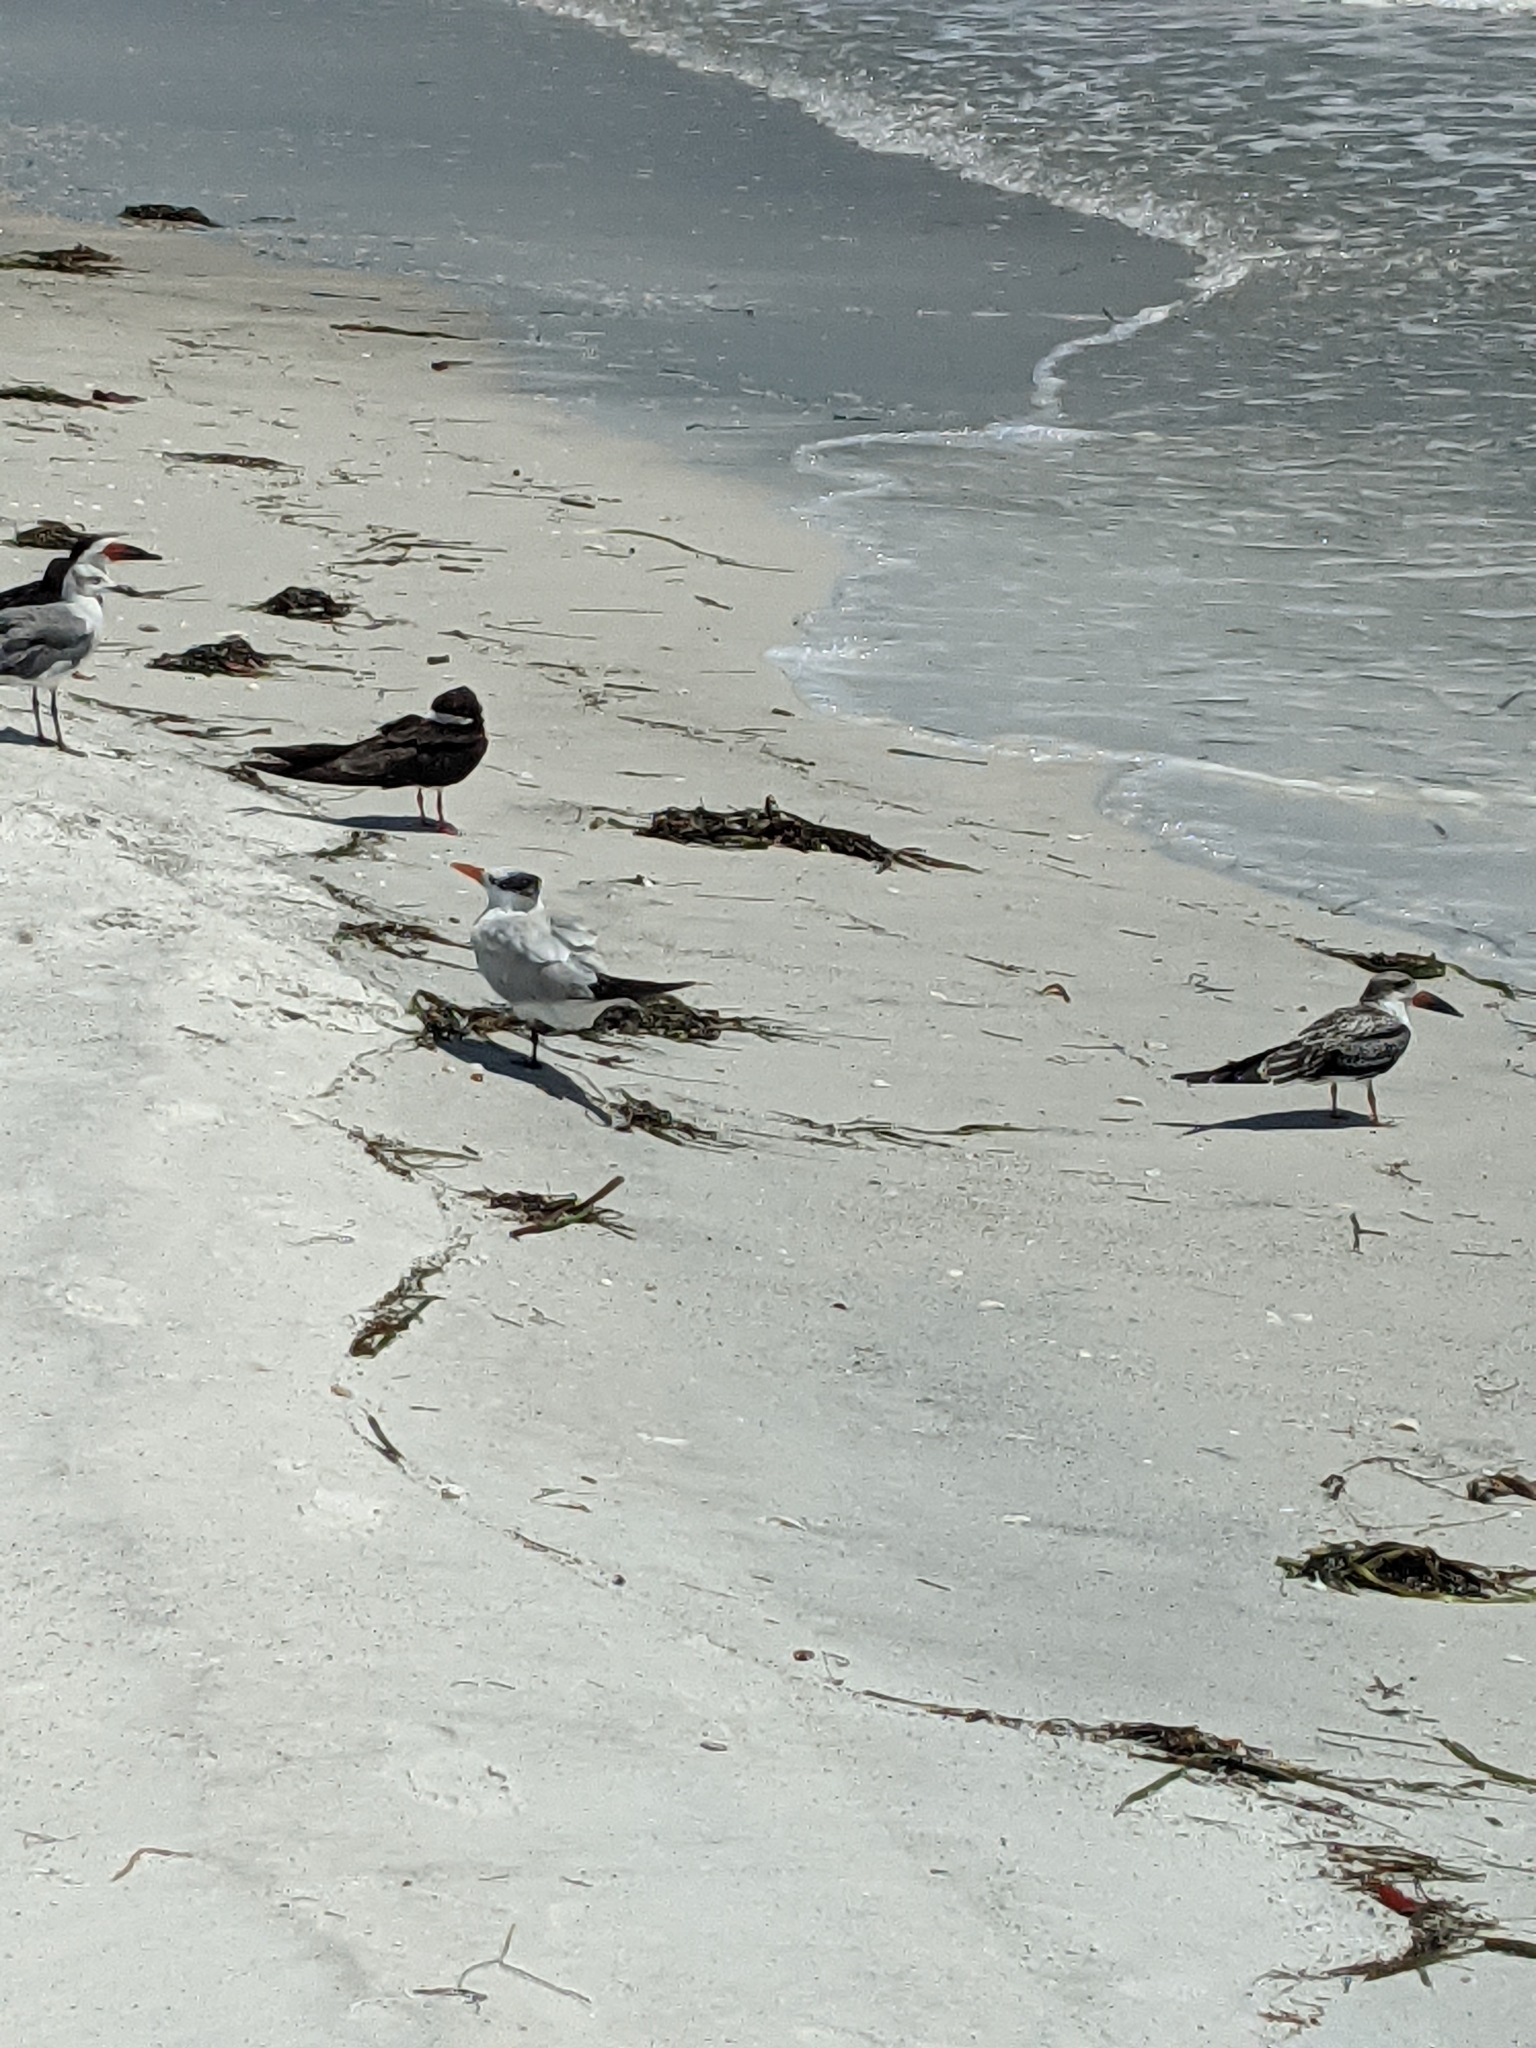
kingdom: Animalia
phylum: Chordata
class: Aves
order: Charadriiformes
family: Laridae
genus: Thalasseus
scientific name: Thalasseus maximus
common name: Royal tern
